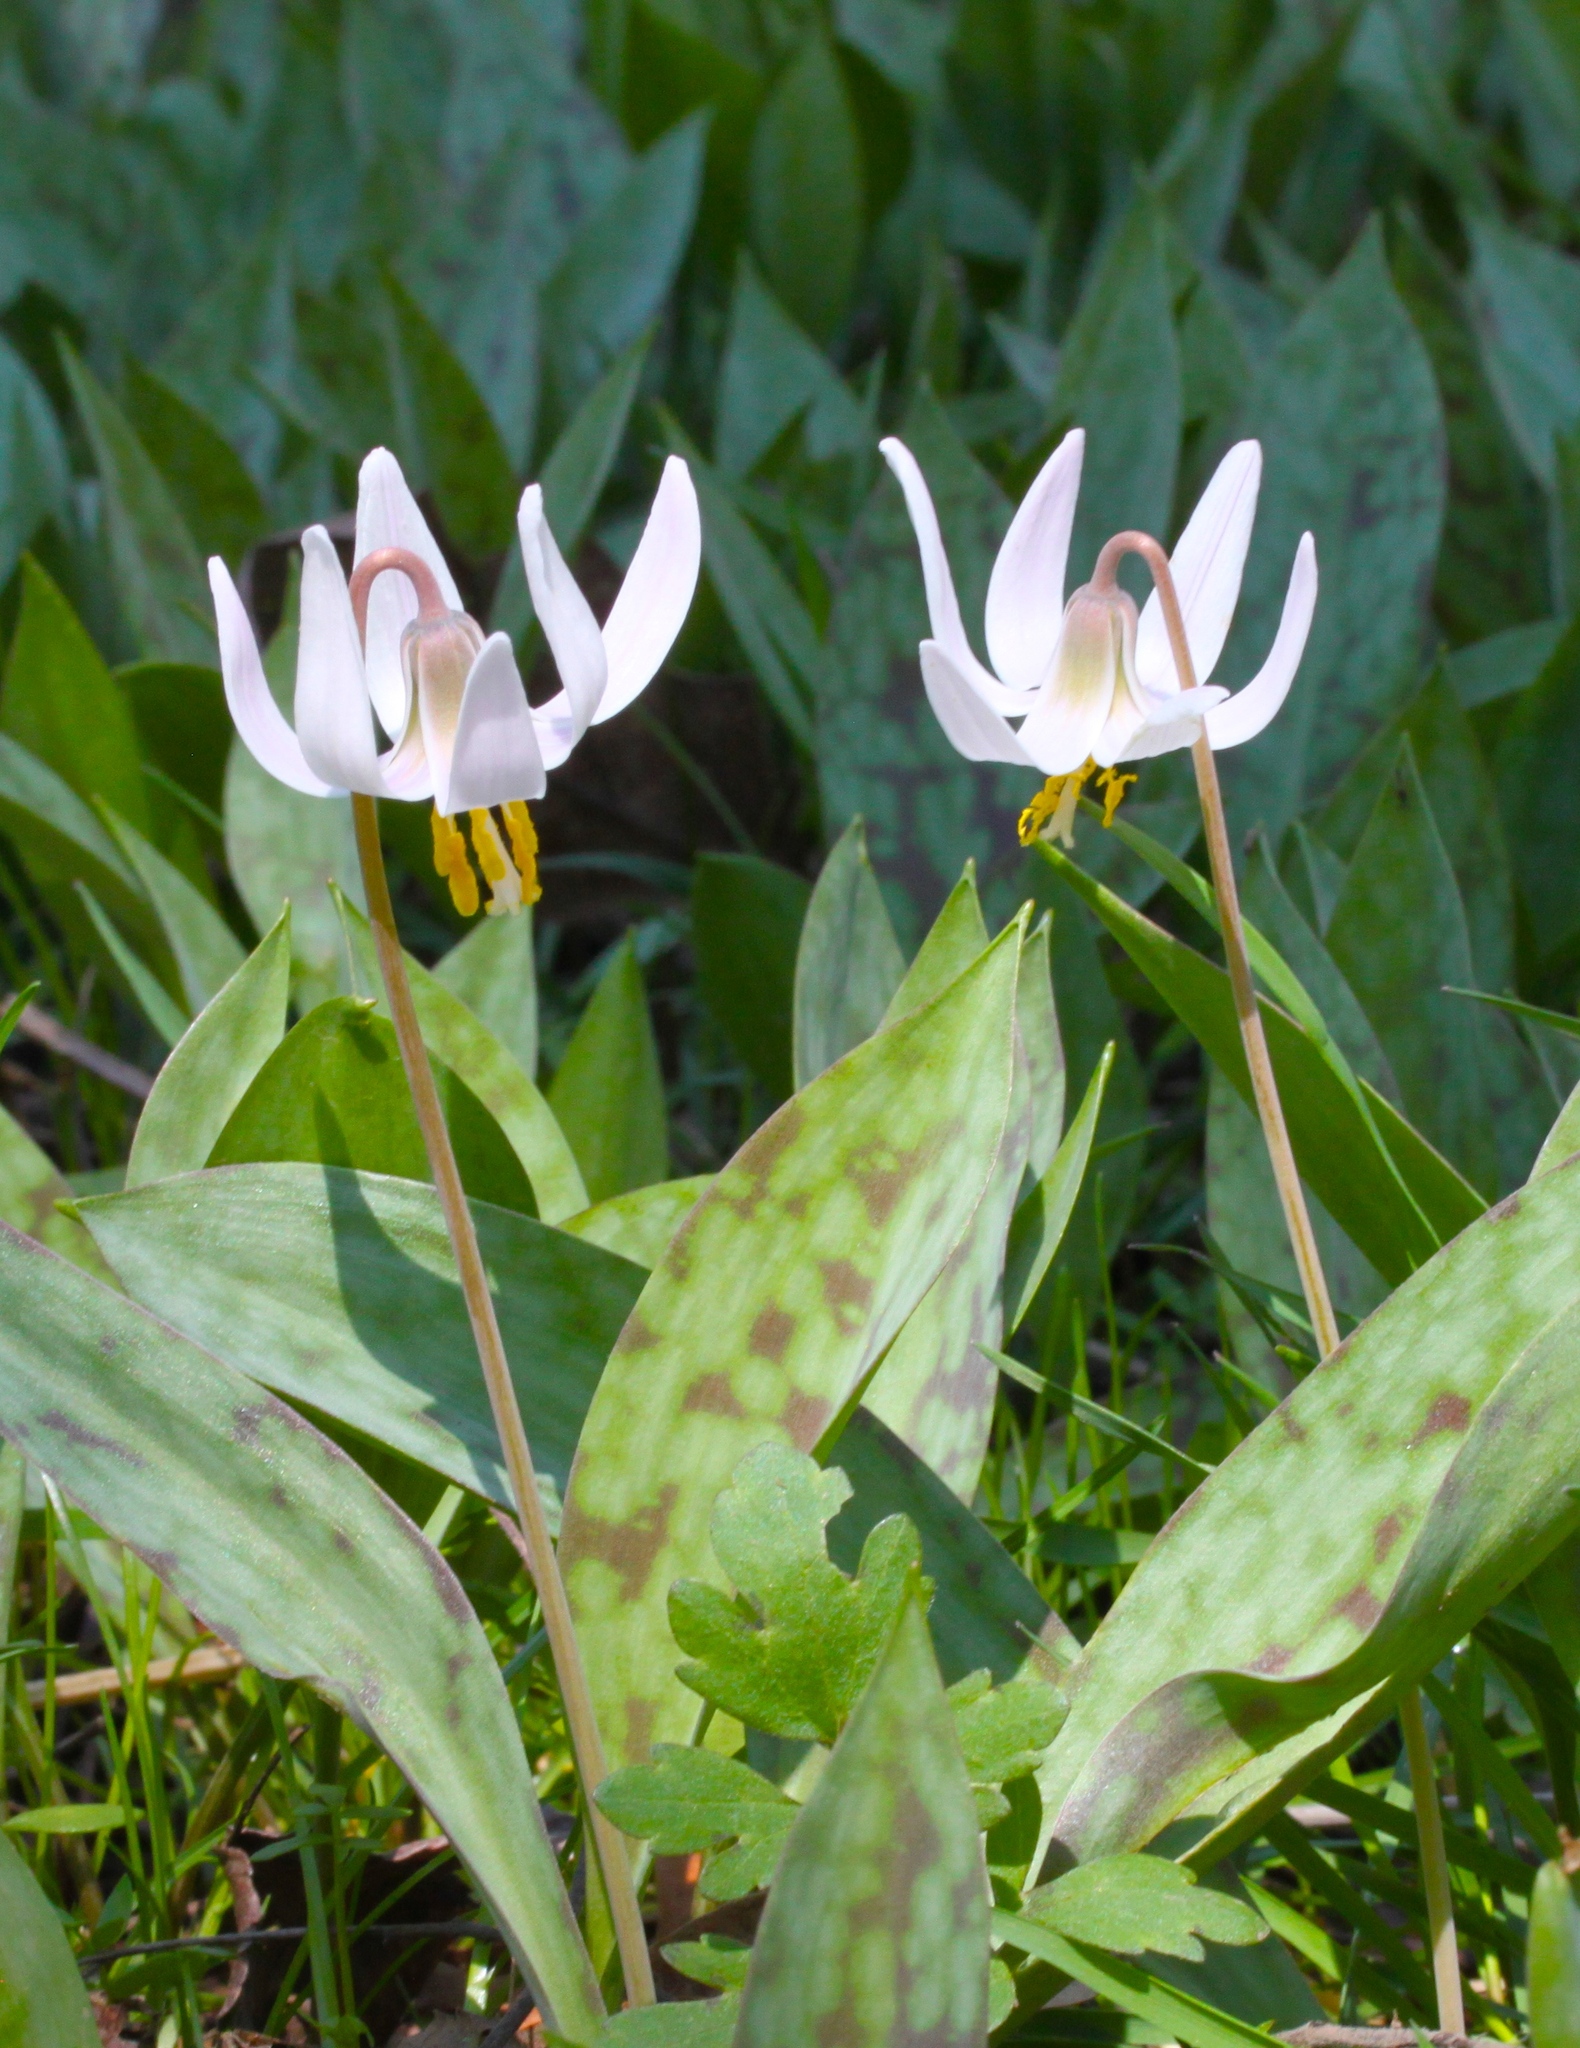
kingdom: Plantae
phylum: Tracheophyta
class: Liliopsida
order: Liliales
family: Liliaceae
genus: Erythronium
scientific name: Erythronium albidum
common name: White trout-lily
